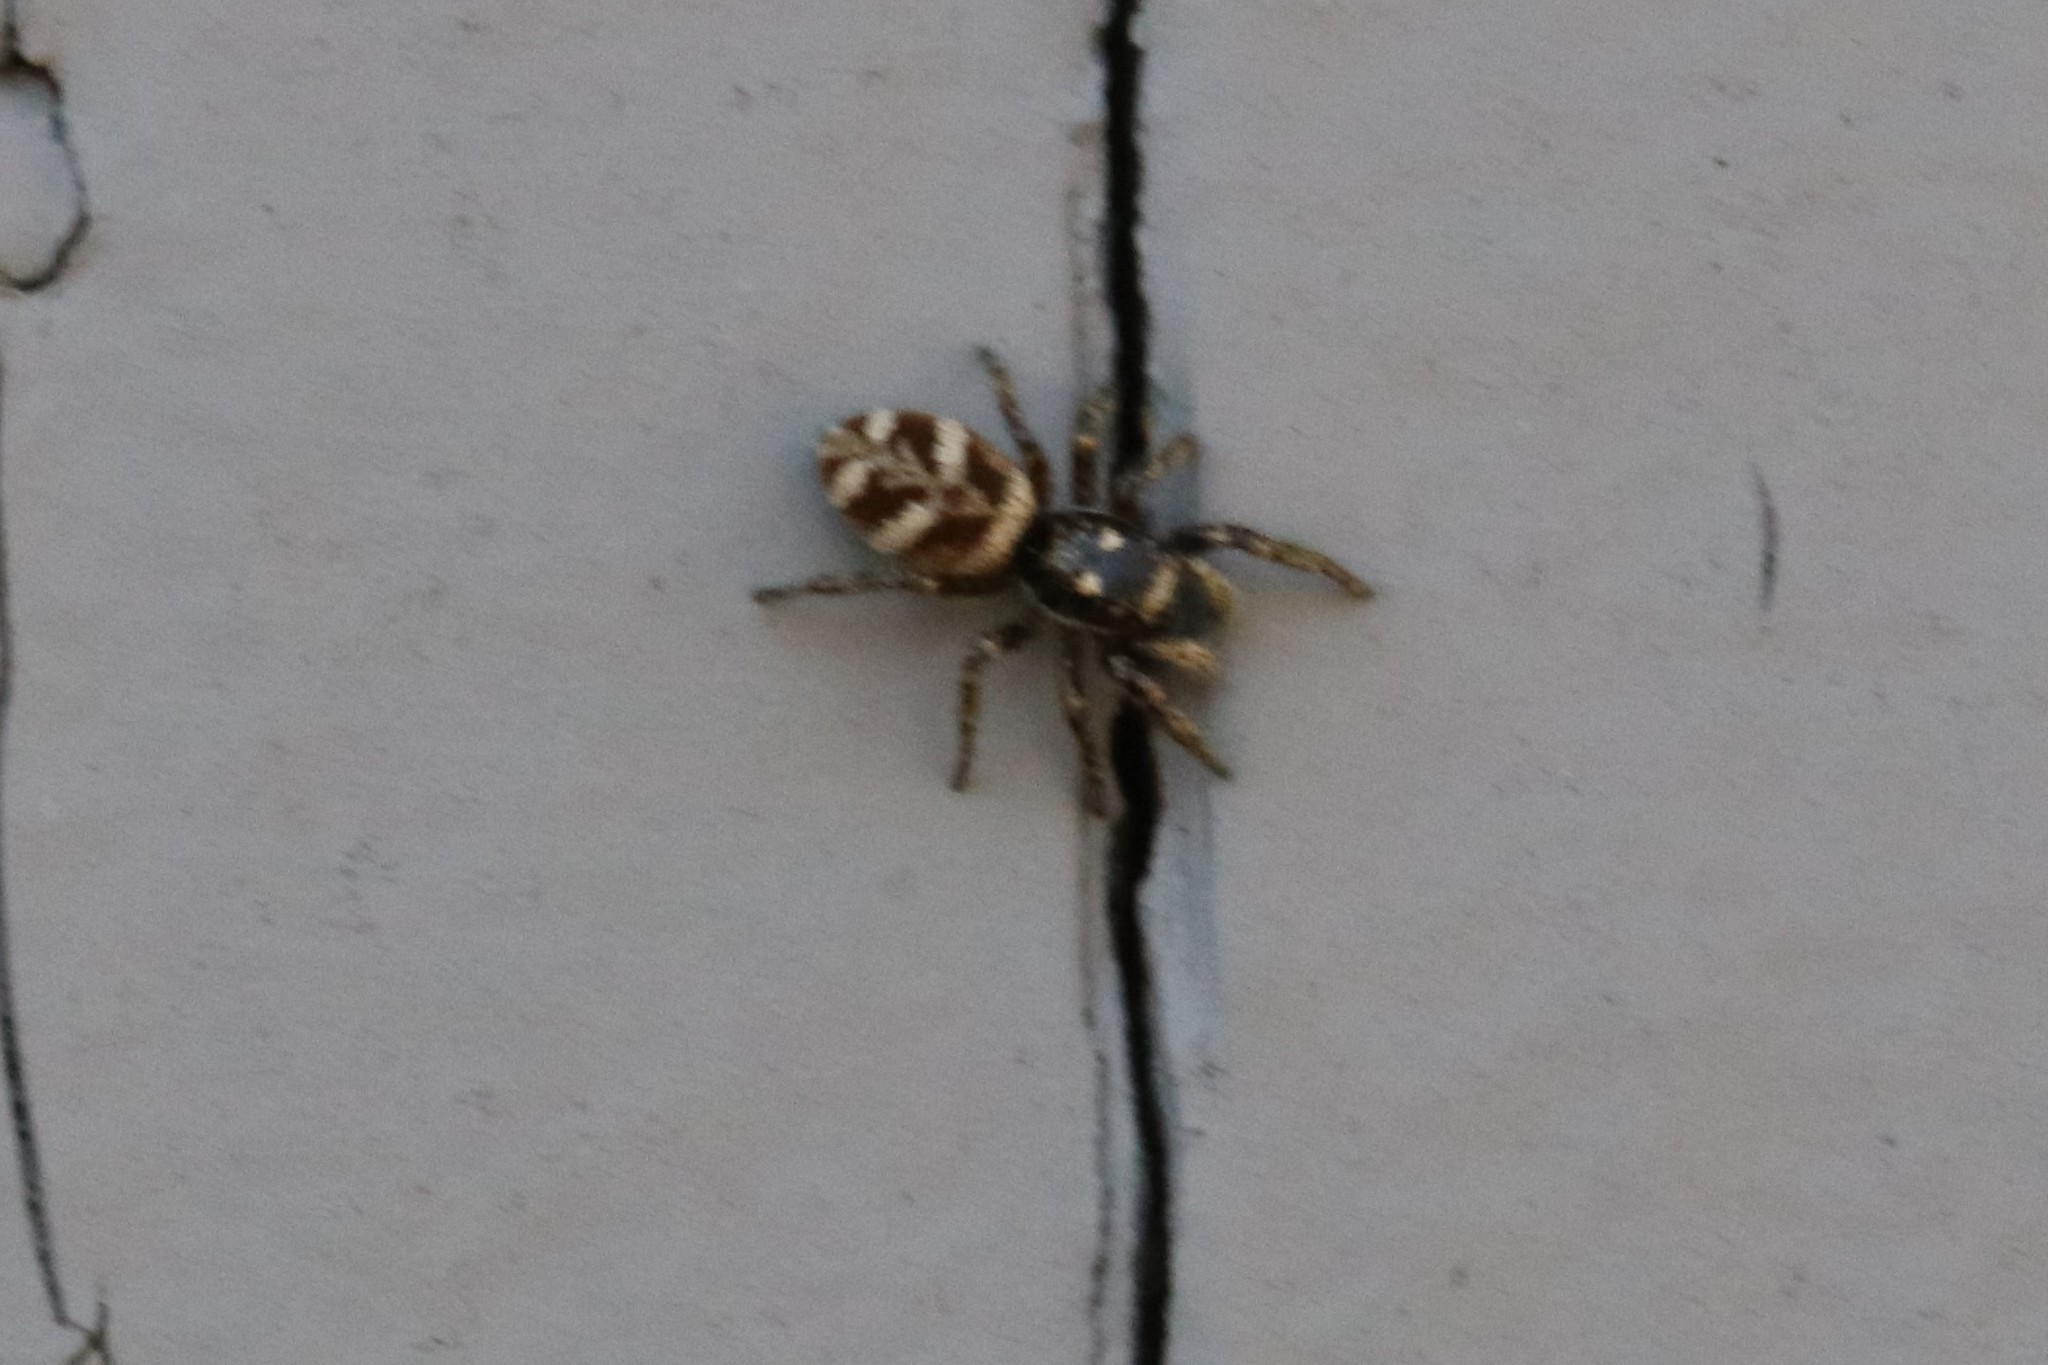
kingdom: Animalia
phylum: Arthropoda
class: Arachnida
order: Araneae
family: Salticidae
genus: Salticus
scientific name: Salticus scenicus
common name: Zebra jumper
